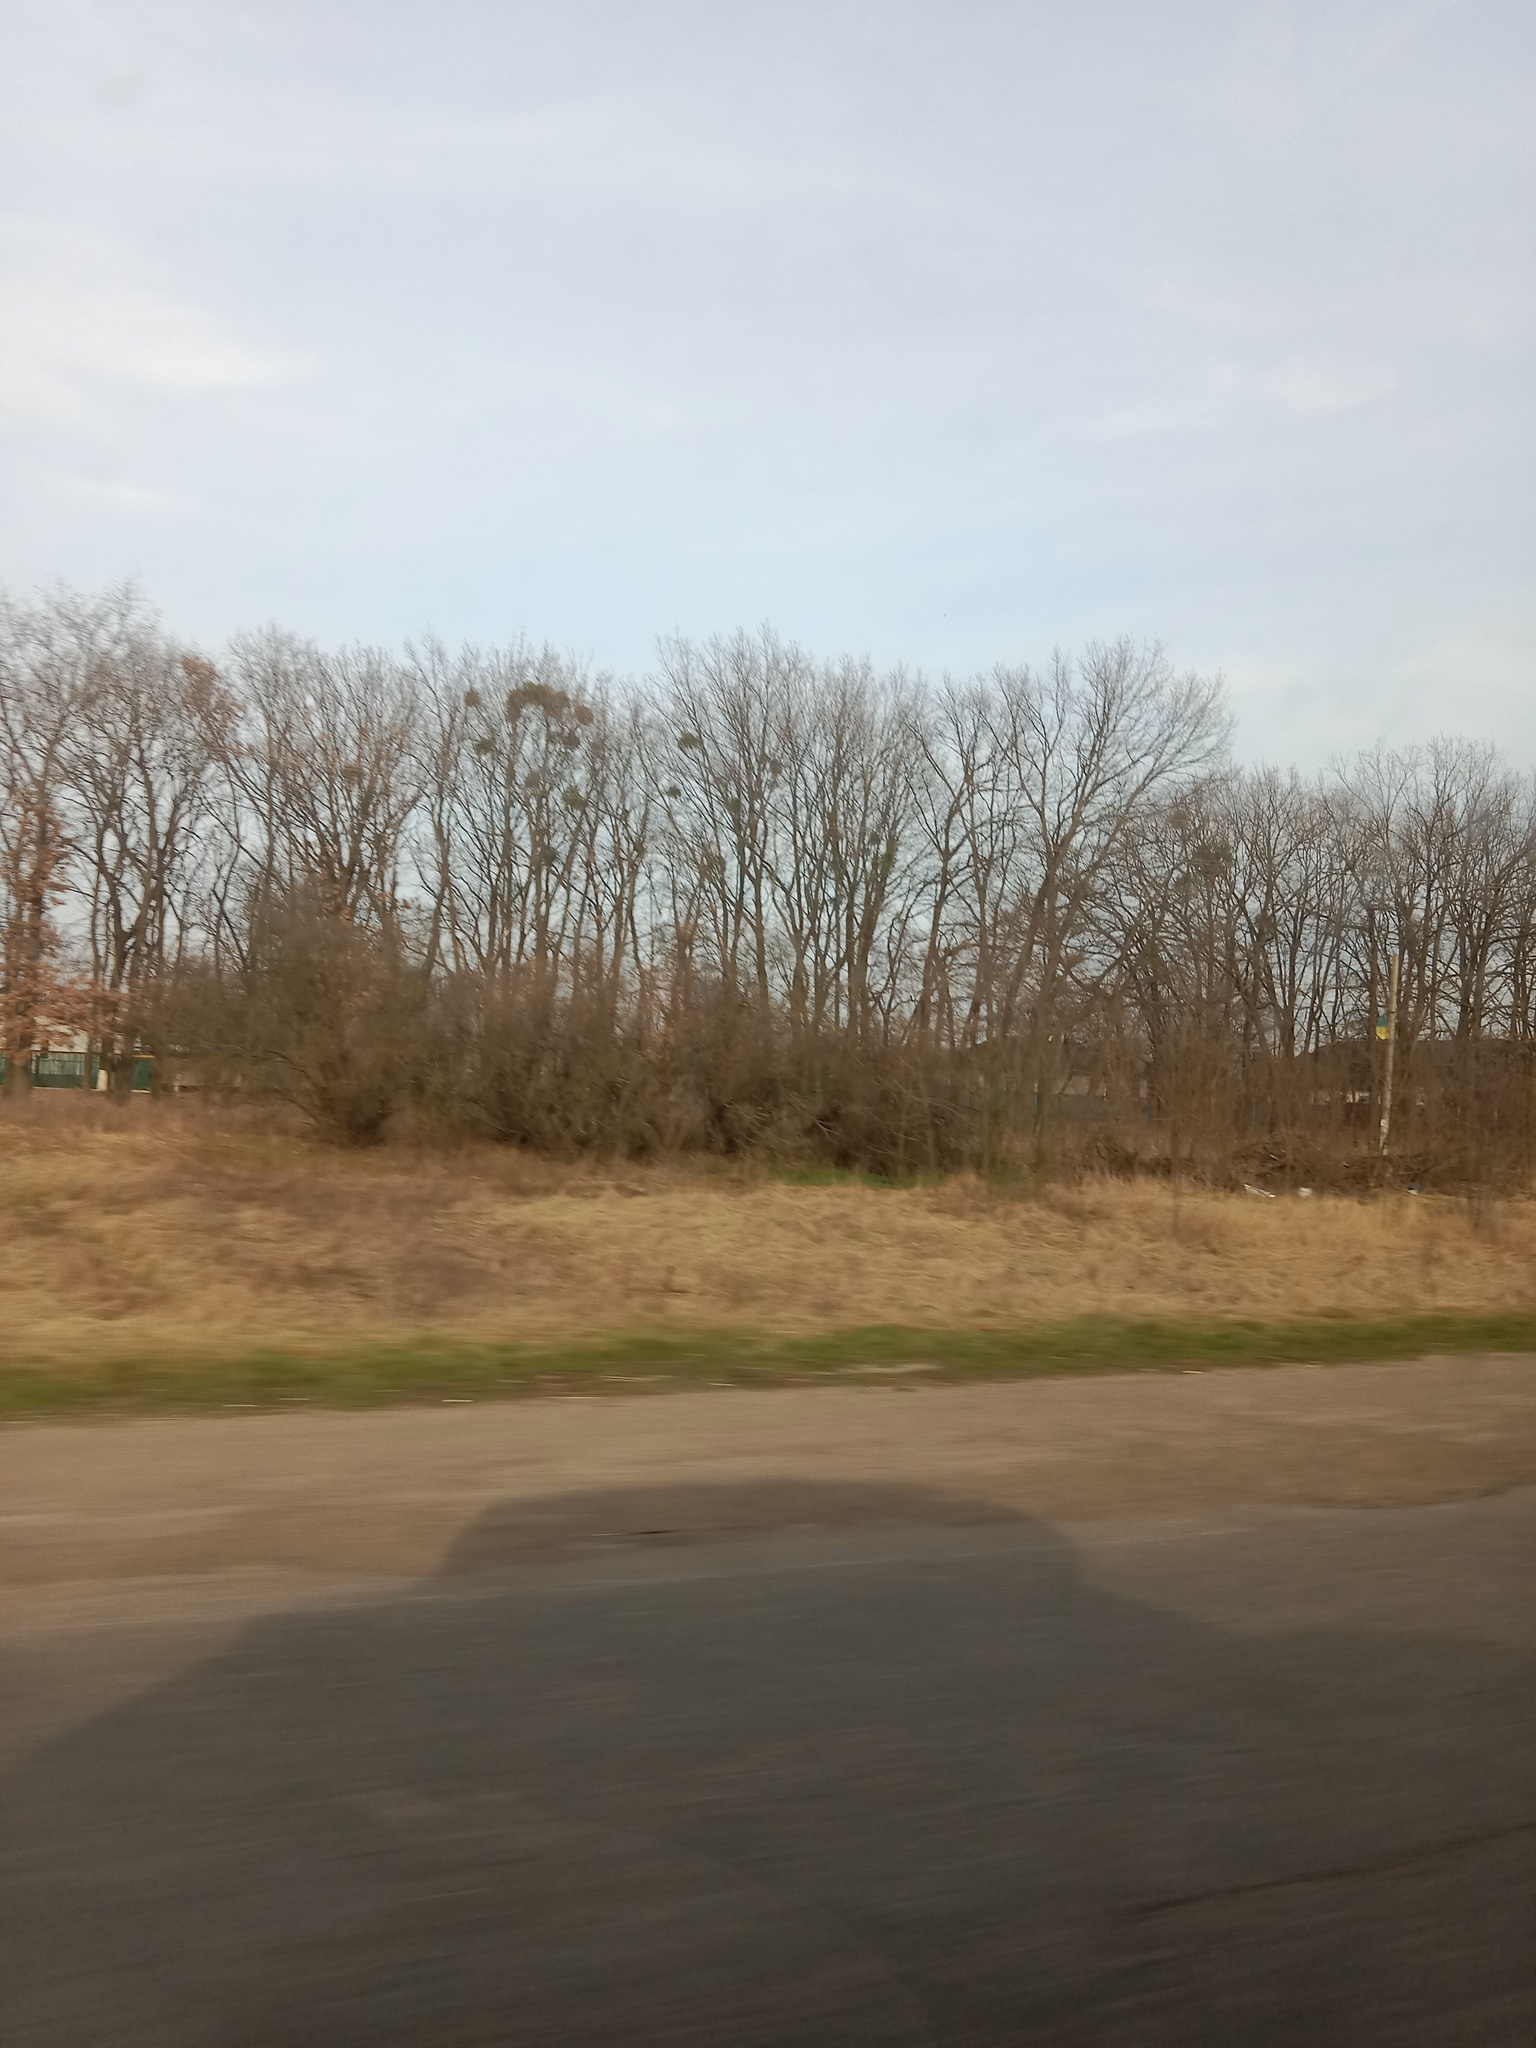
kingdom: Plantae
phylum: Tracheophyta
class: Magnoliopsida
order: Santalales
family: Viscaceae
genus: Viscum
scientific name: Viscum album
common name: Mistletoe
